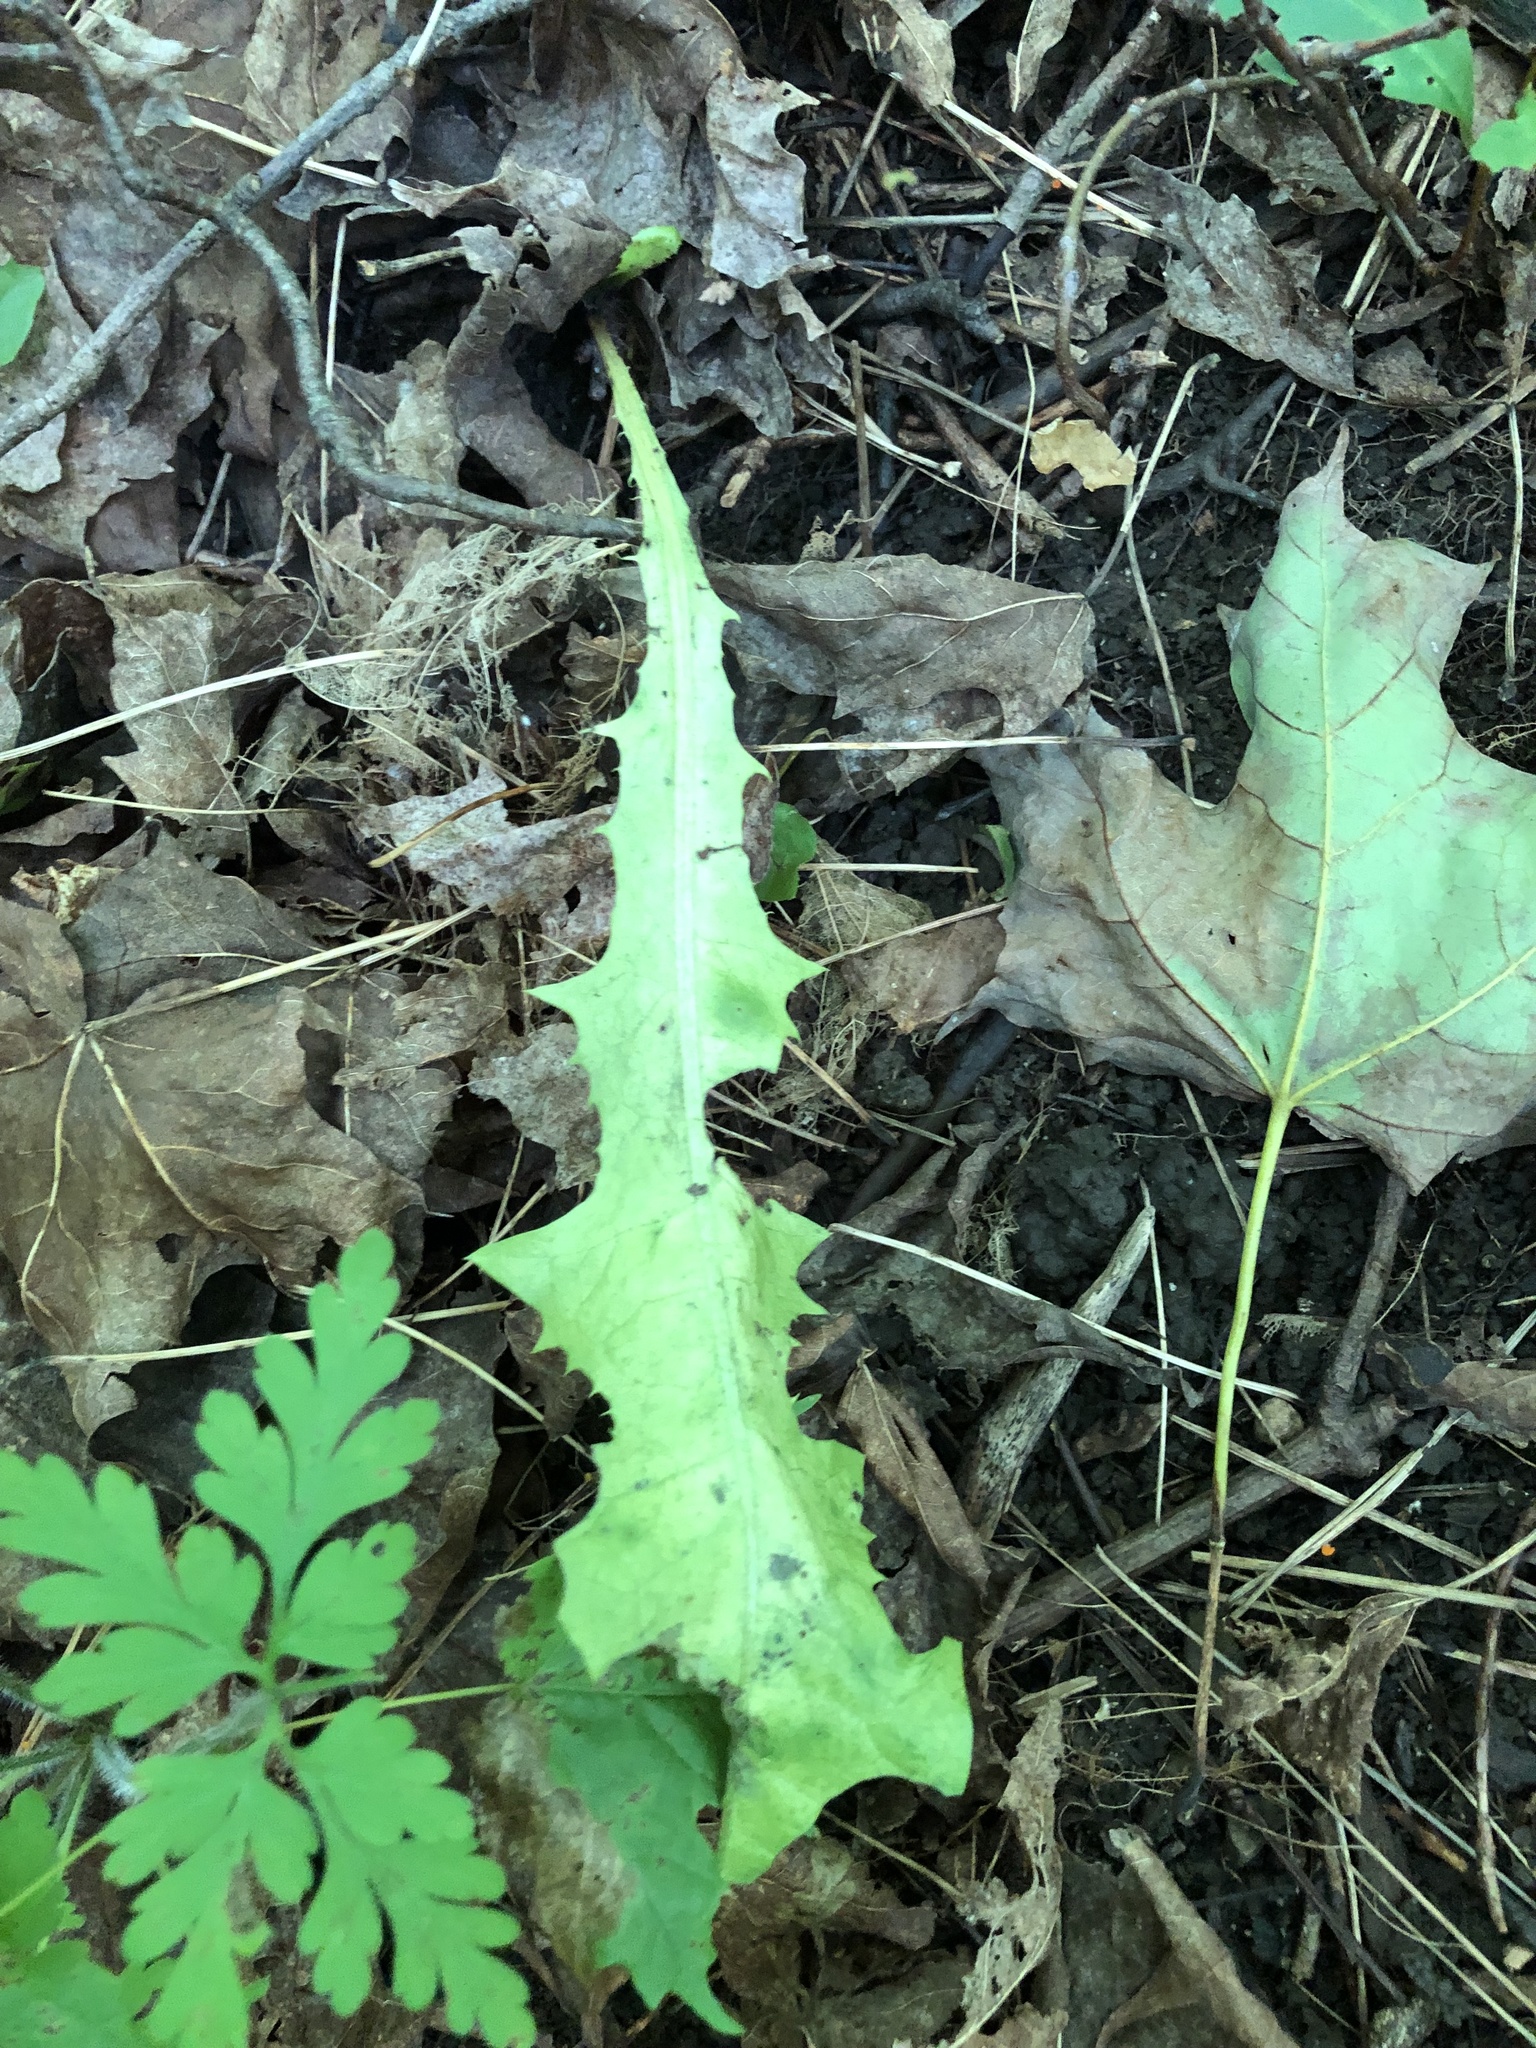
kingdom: Plantae
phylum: Tracheophyta
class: Magnoliopsida
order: Asterales
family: Asteraceae
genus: Taraxacum
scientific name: Taraxacum officinale
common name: Common dandelion
